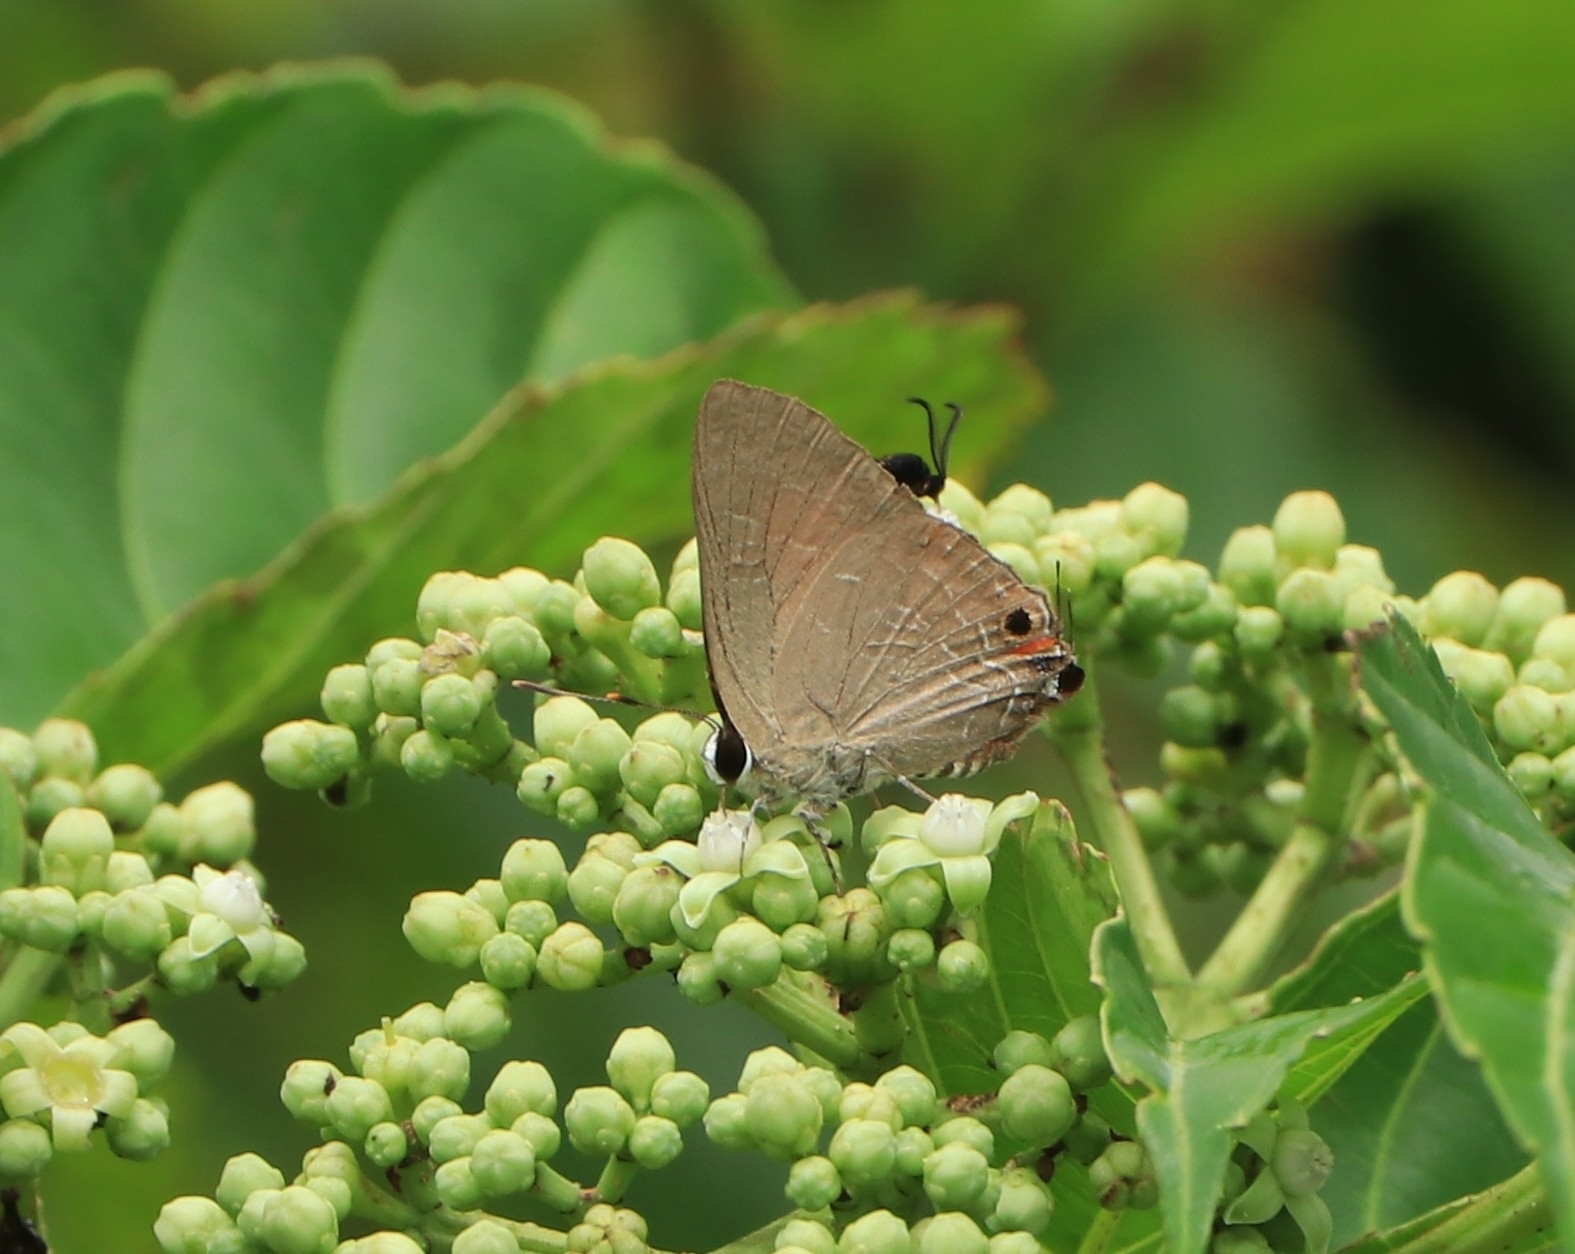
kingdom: Animalia
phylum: Arthropoda
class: Insecta
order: Lepidoptera
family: Lycaenidae
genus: Deudorix
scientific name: Deudorix epijarbas
